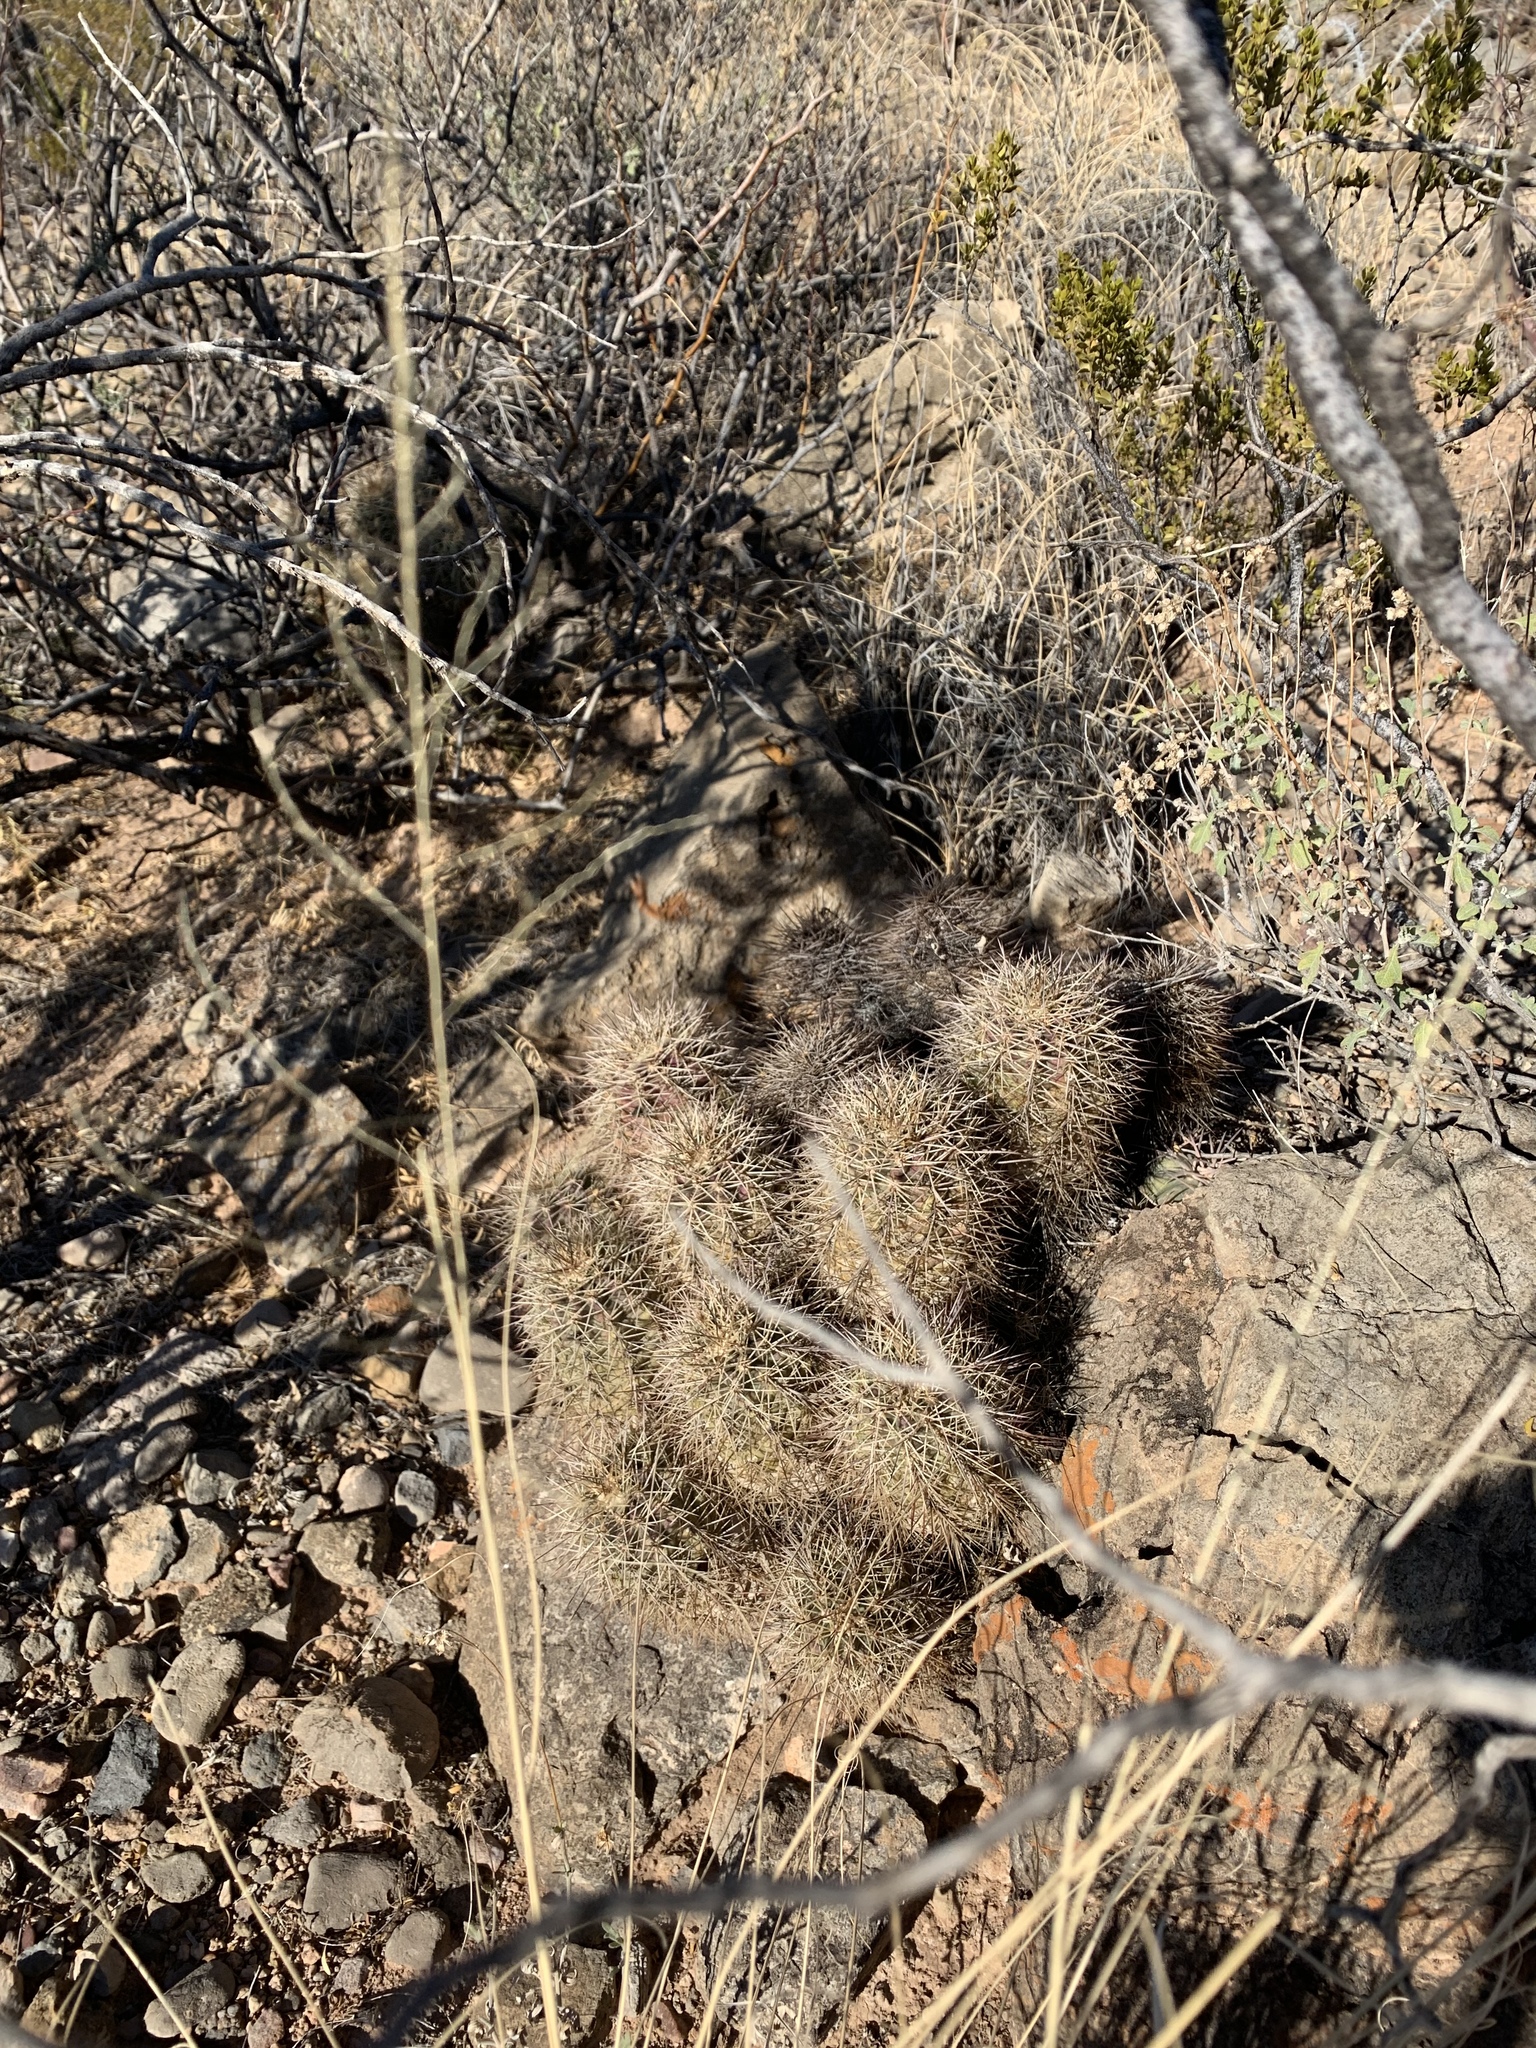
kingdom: Plantae
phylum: Tracheophyta
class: Magnoliopsida
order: Caryophyllales
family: Cactaceae
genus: Echinocereus
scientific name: Echinocereus coccineus
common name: Scarlet hedgehog cactus
